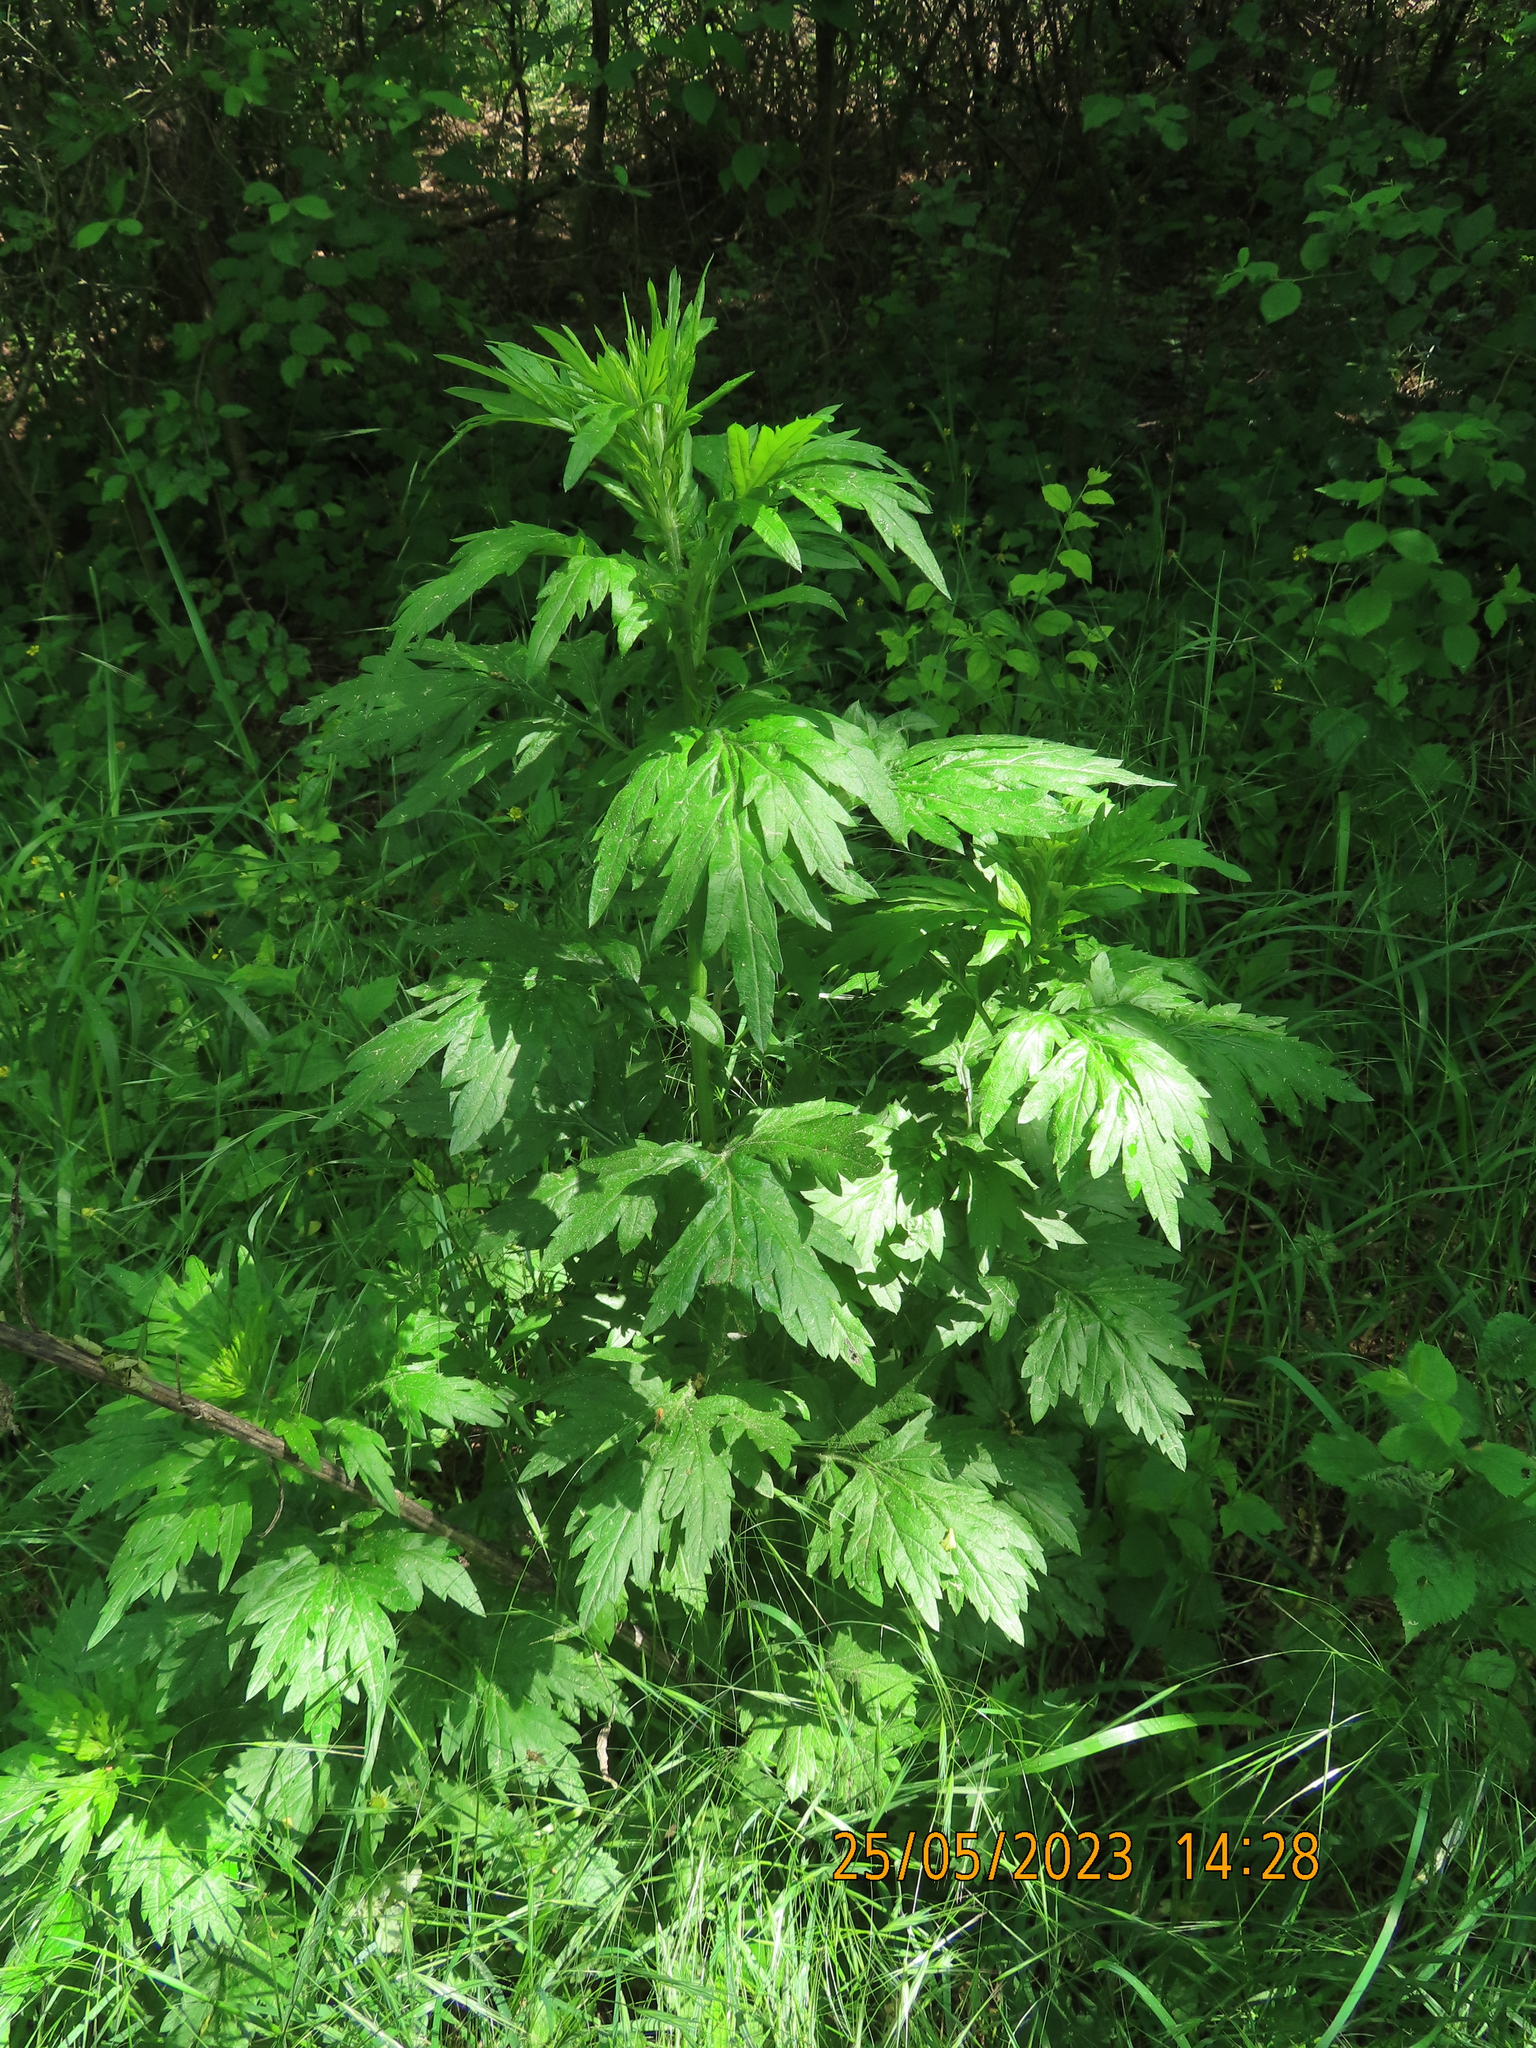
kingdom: Plantae
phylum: Tracheophyta
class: Magnoliopsida
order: Asterales
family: Asteraceae
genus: Artemisia
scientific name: Artemisia vulgaris
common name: Mugwort
